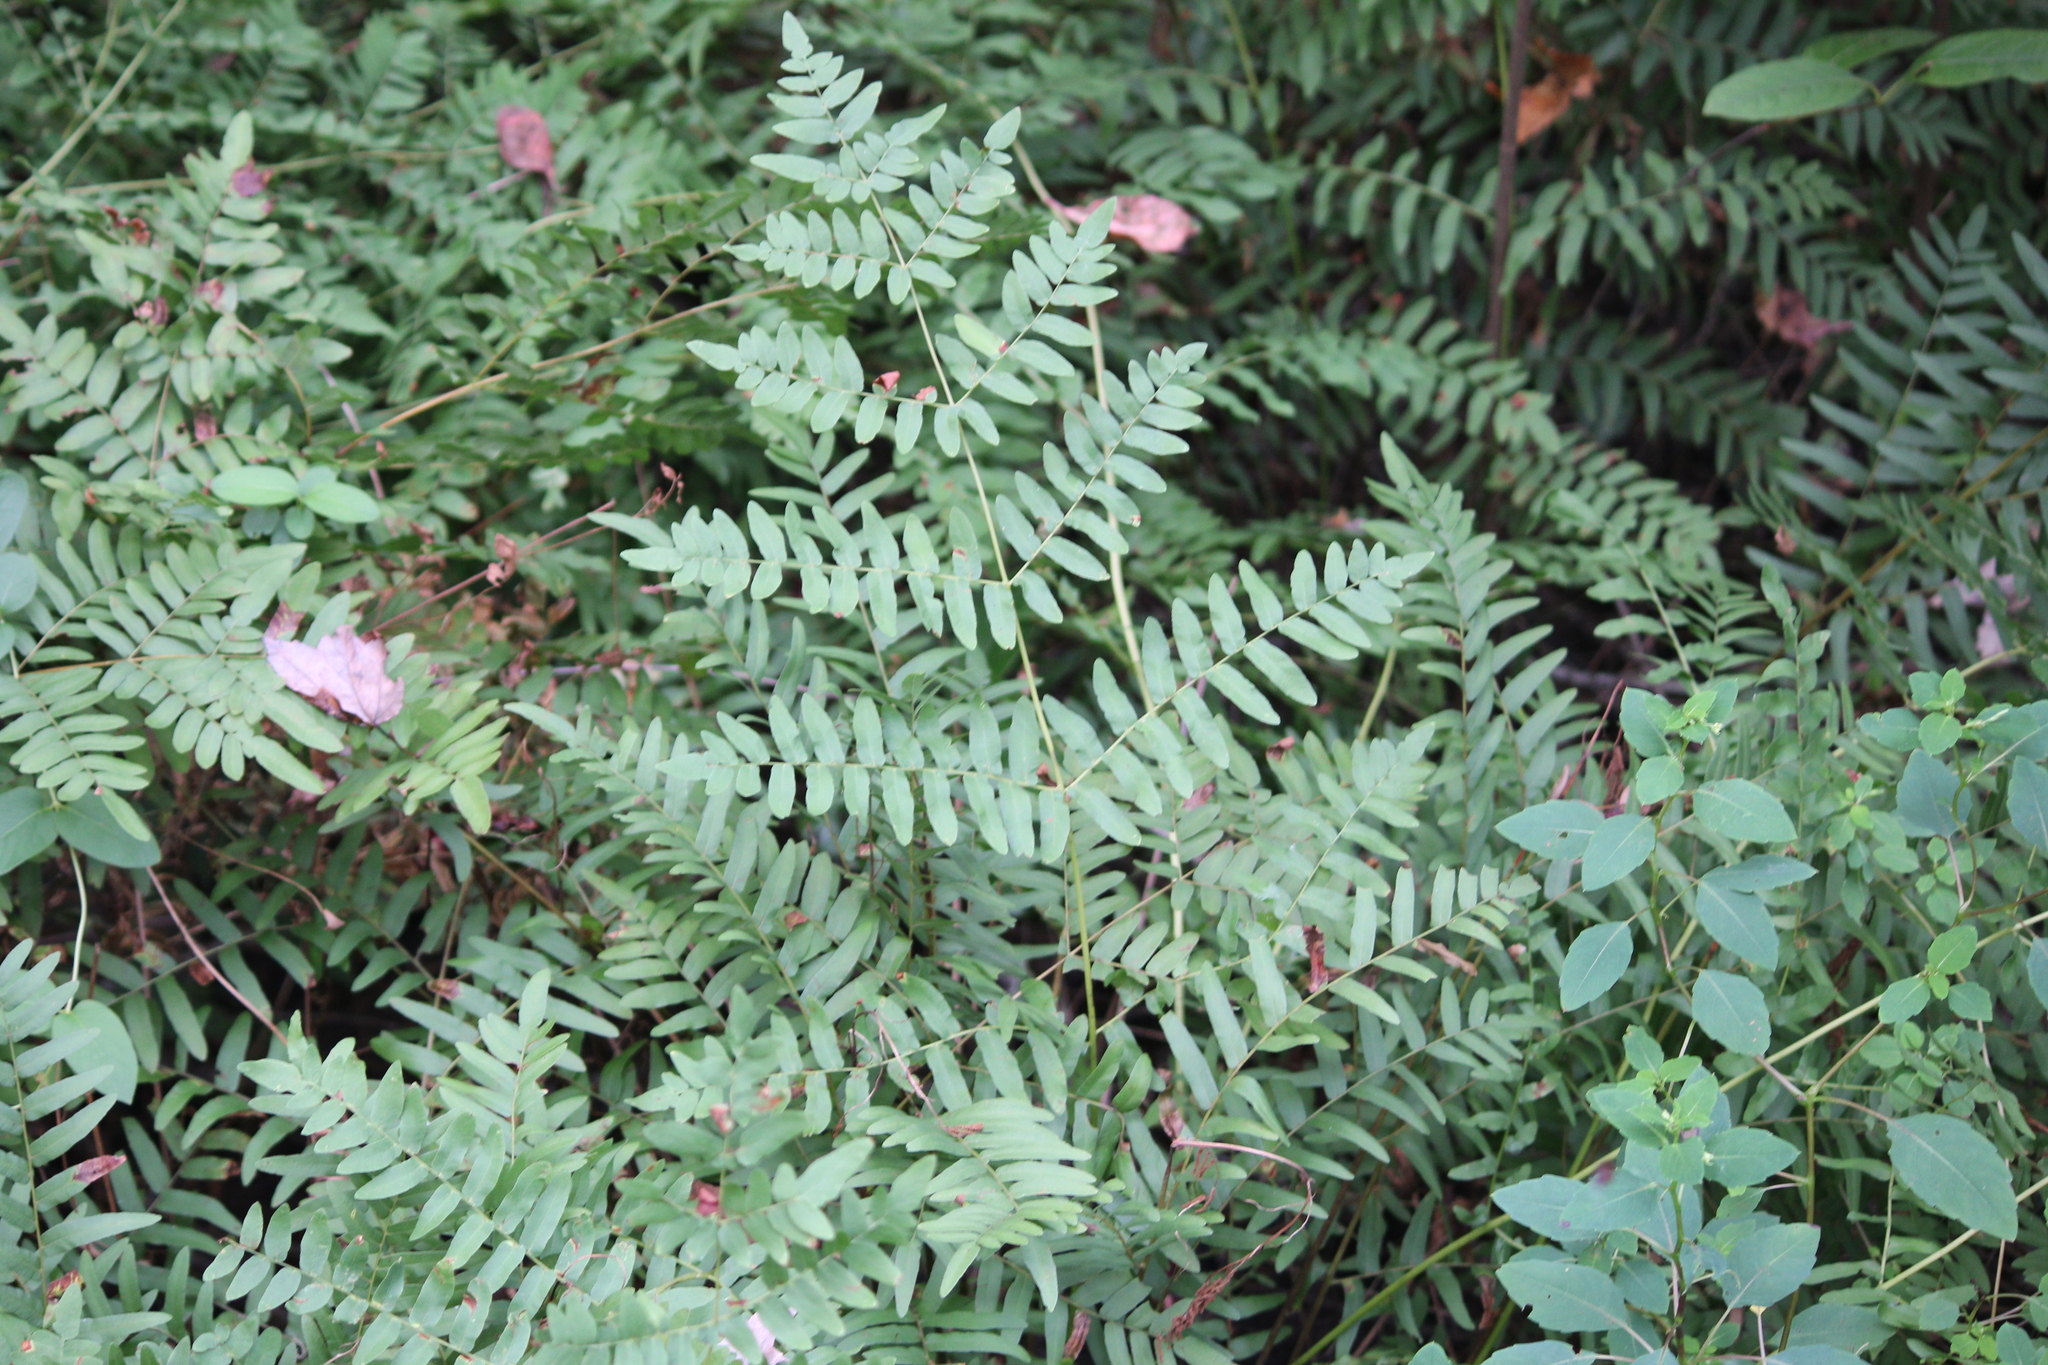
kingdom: Plantae
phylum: Tracheophyta
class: Polypodiopsida
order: Osmundales
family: Osmundaceae
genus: Osmunda
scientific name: Osmunda spectabilis
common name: American royal fern
